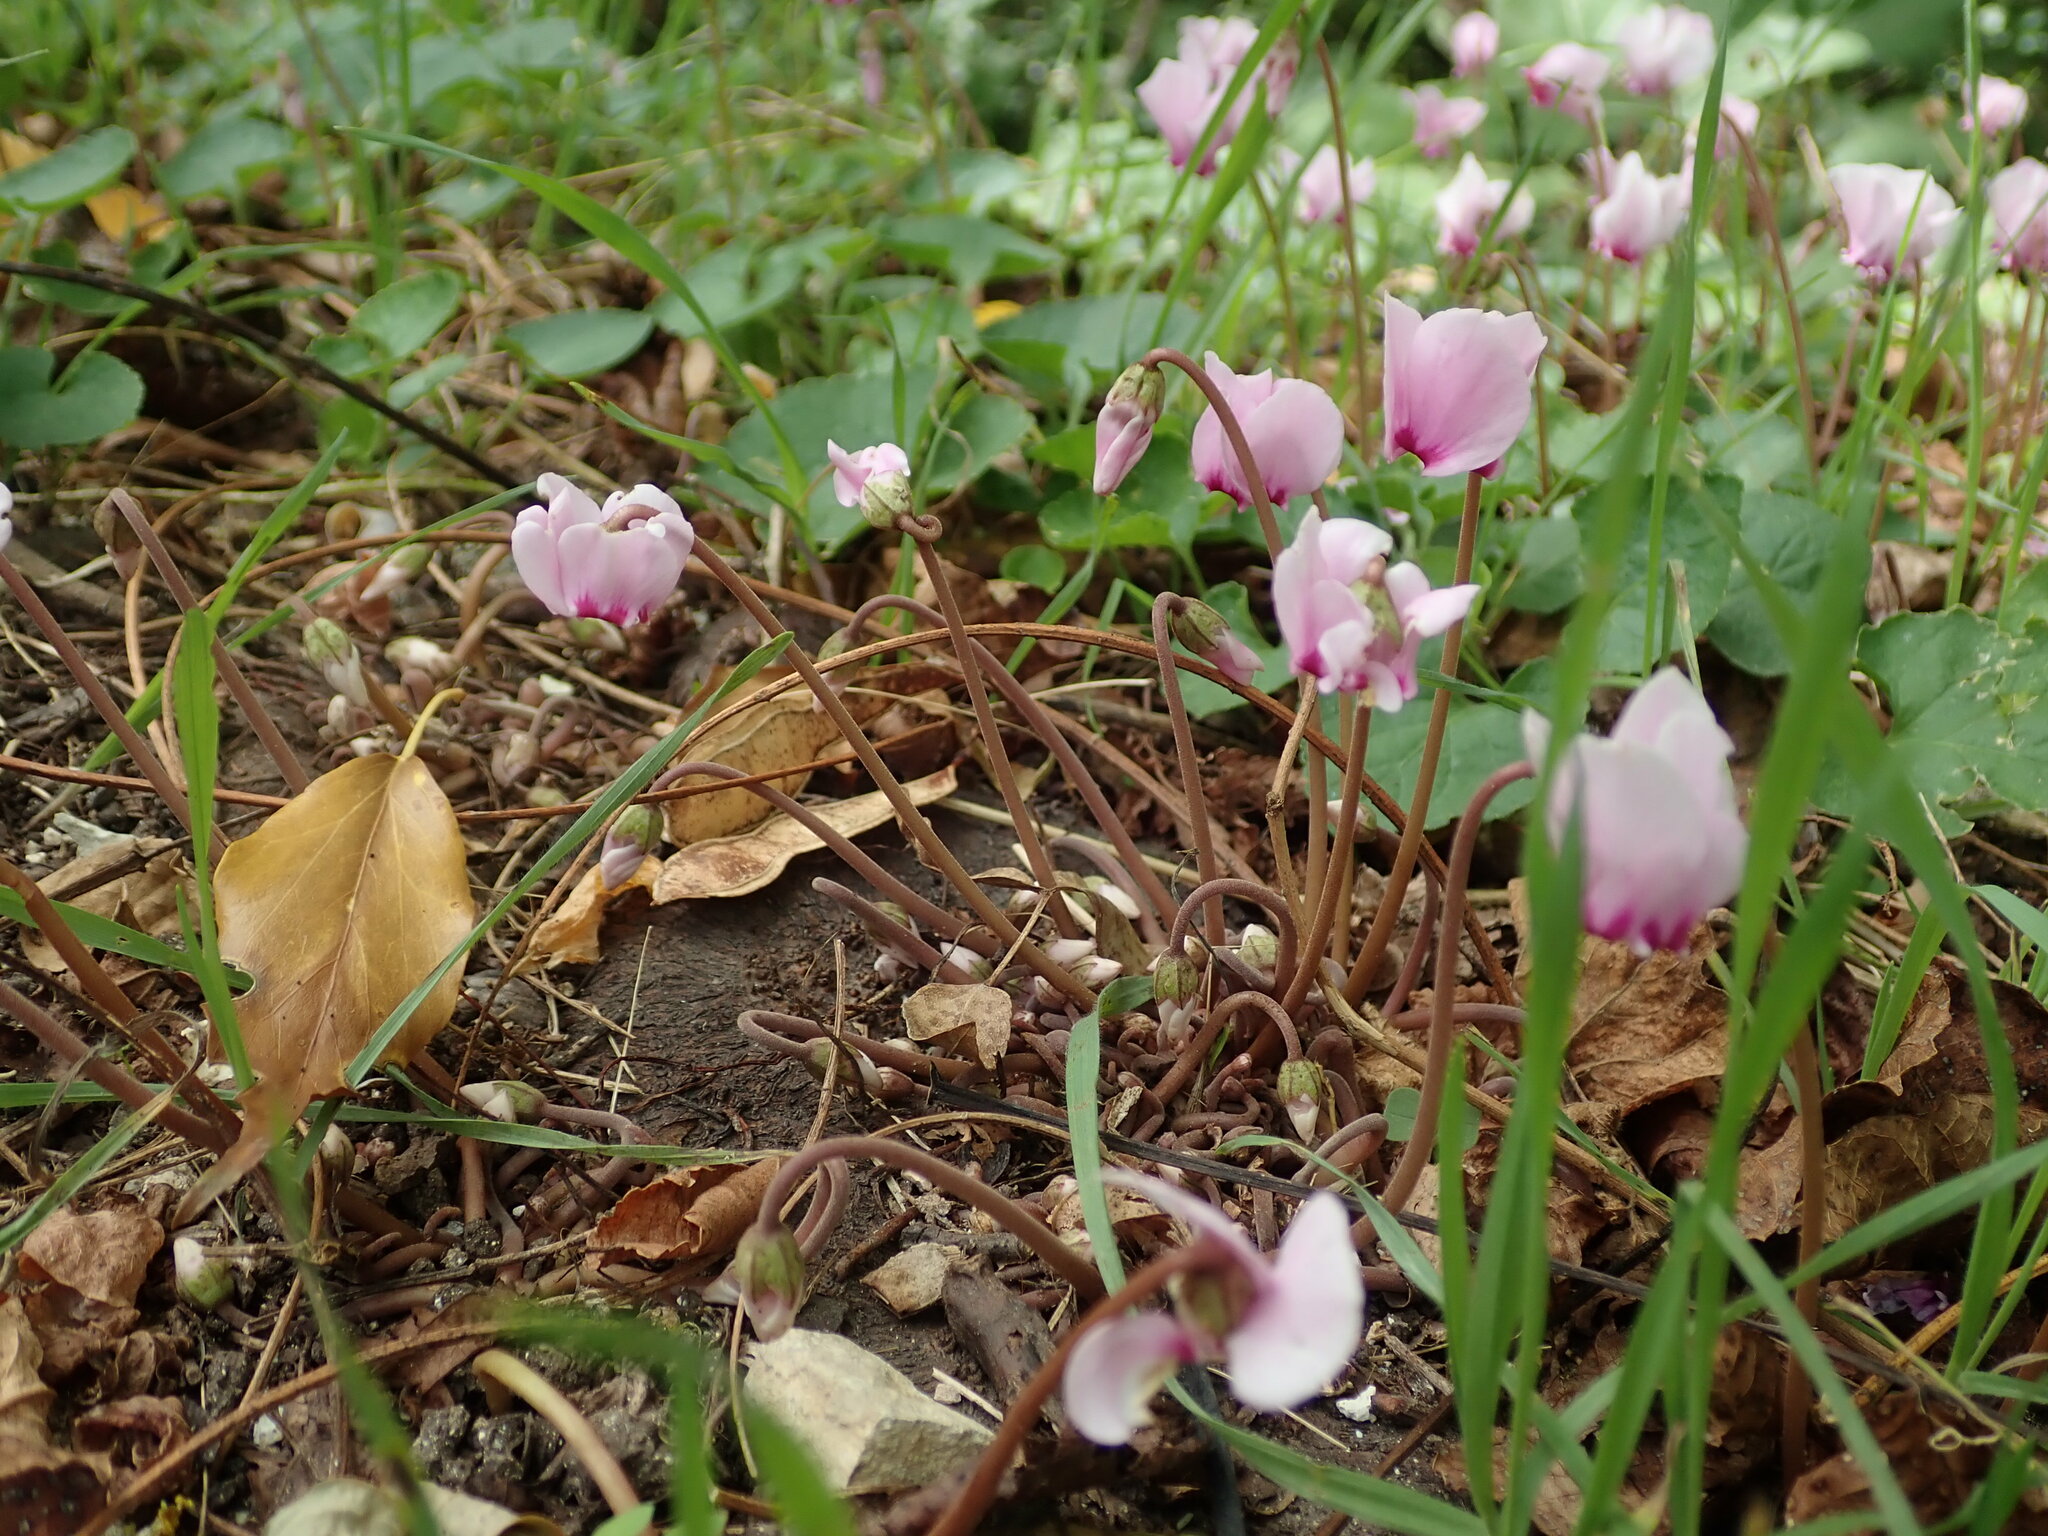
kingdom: Plantae
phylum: Tracheophyta
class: Magnoliopsida
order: Ericales
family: Primulaceae
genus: Cyclamen
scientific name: Cyclamen hederifolium
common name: Sowbread
